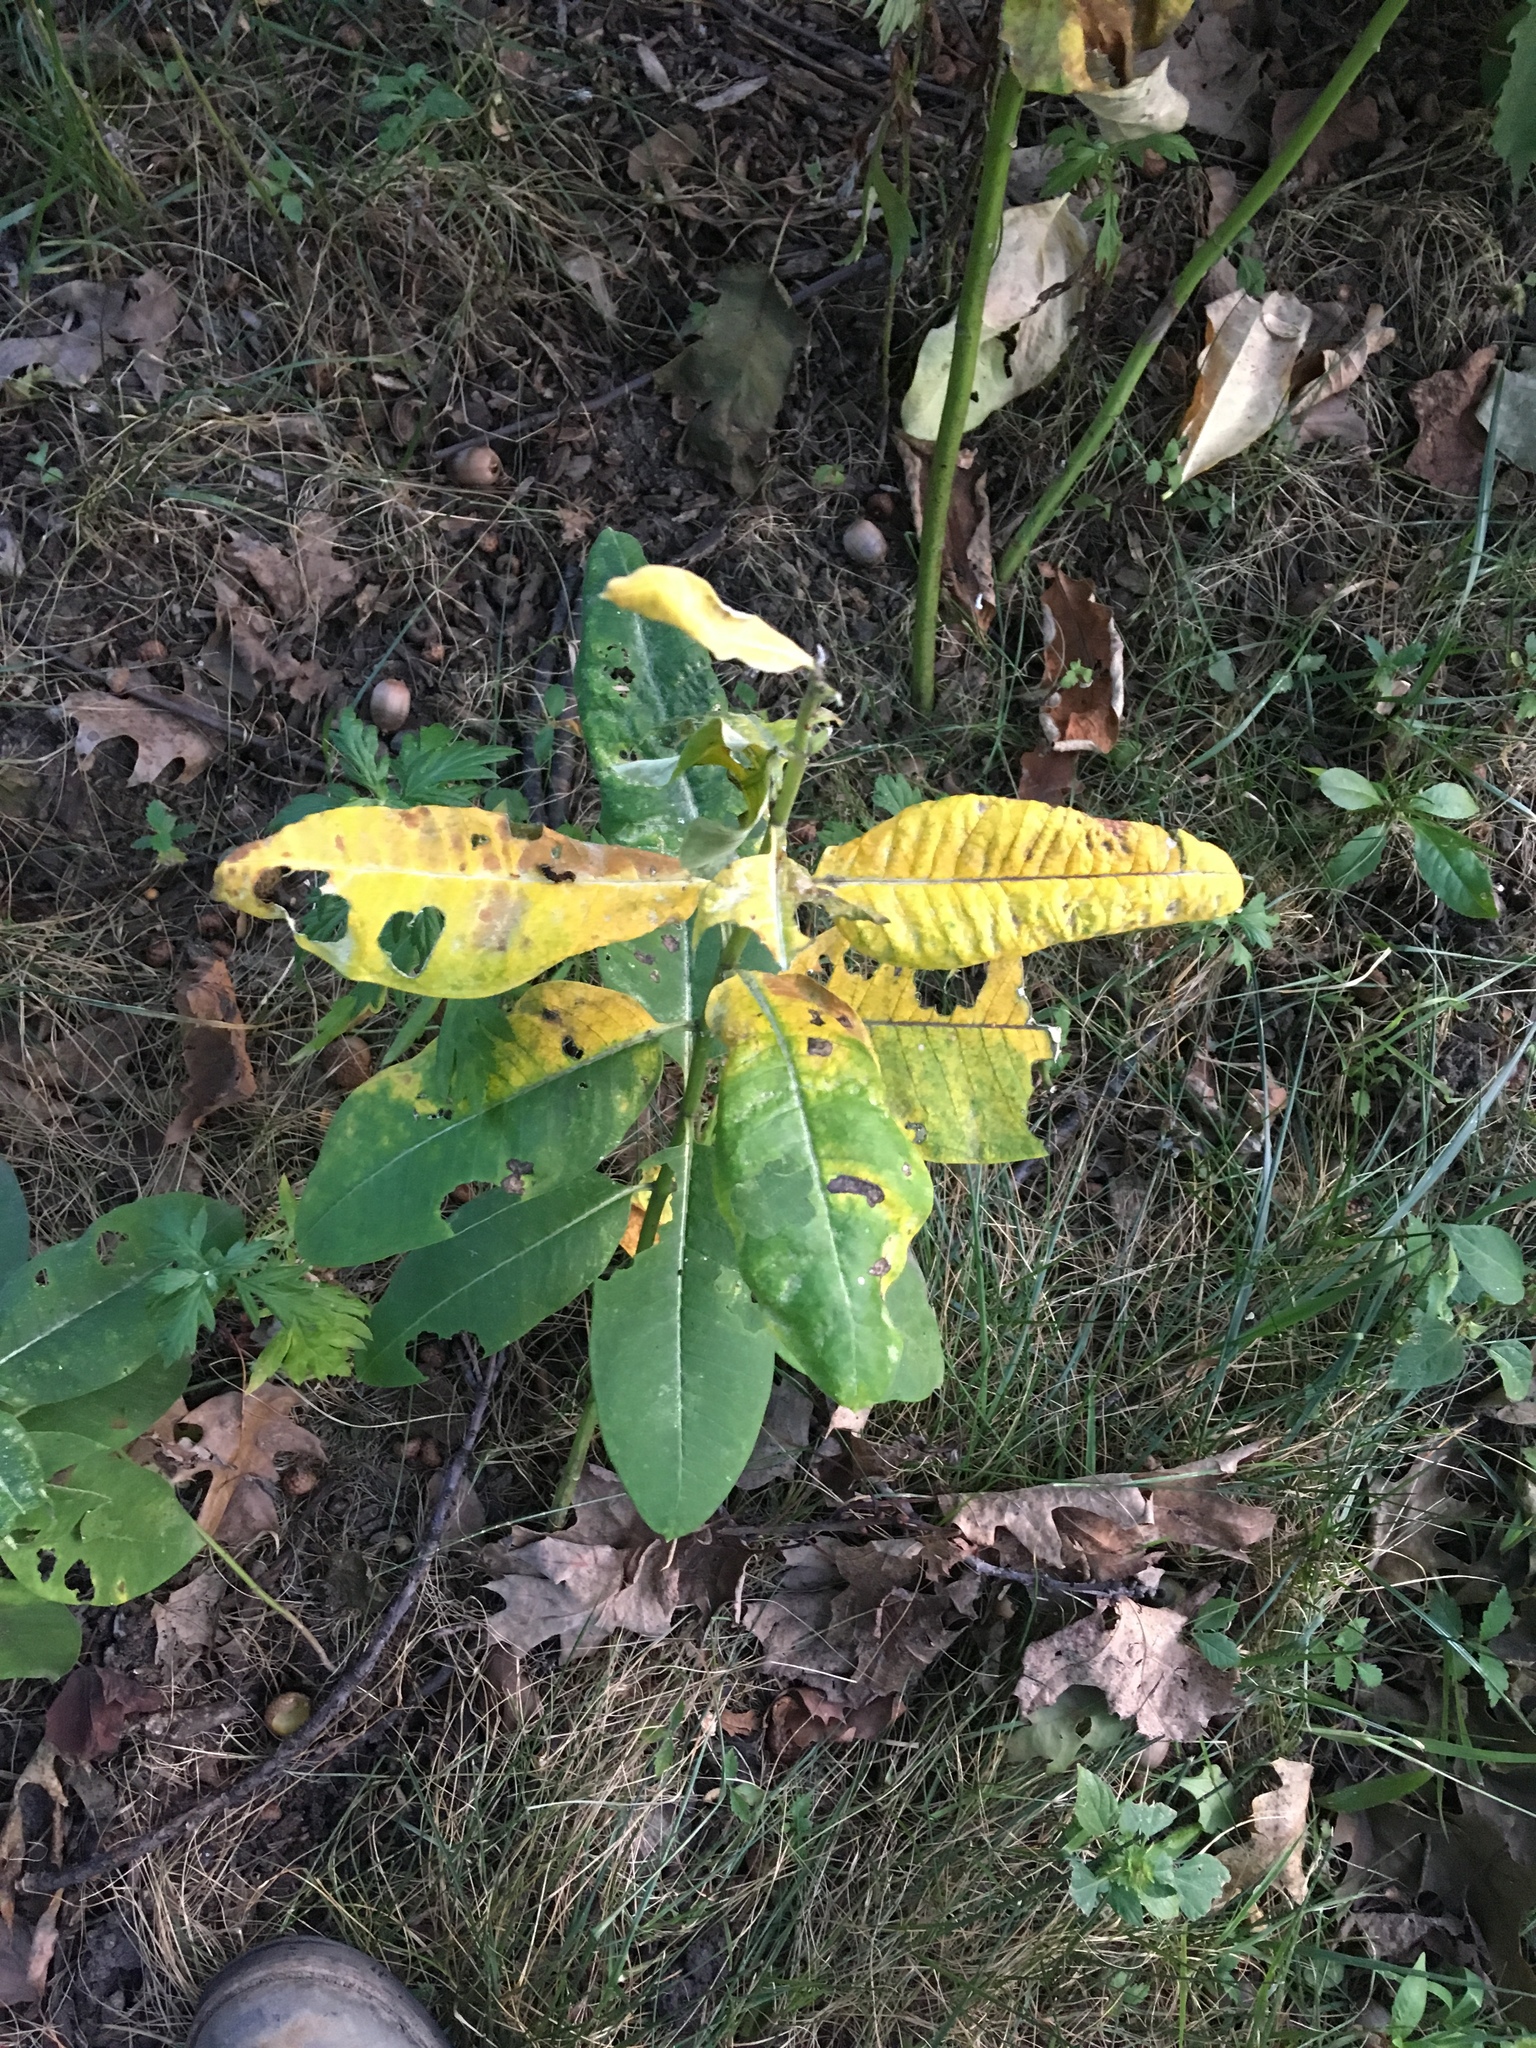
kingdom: Plantae
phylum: Tracheophyta
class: Magnoliopsida
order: Gentianales
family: Apocynaceae
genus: Asclepias
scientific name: Asclepias syriaca
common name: Common milkweed
